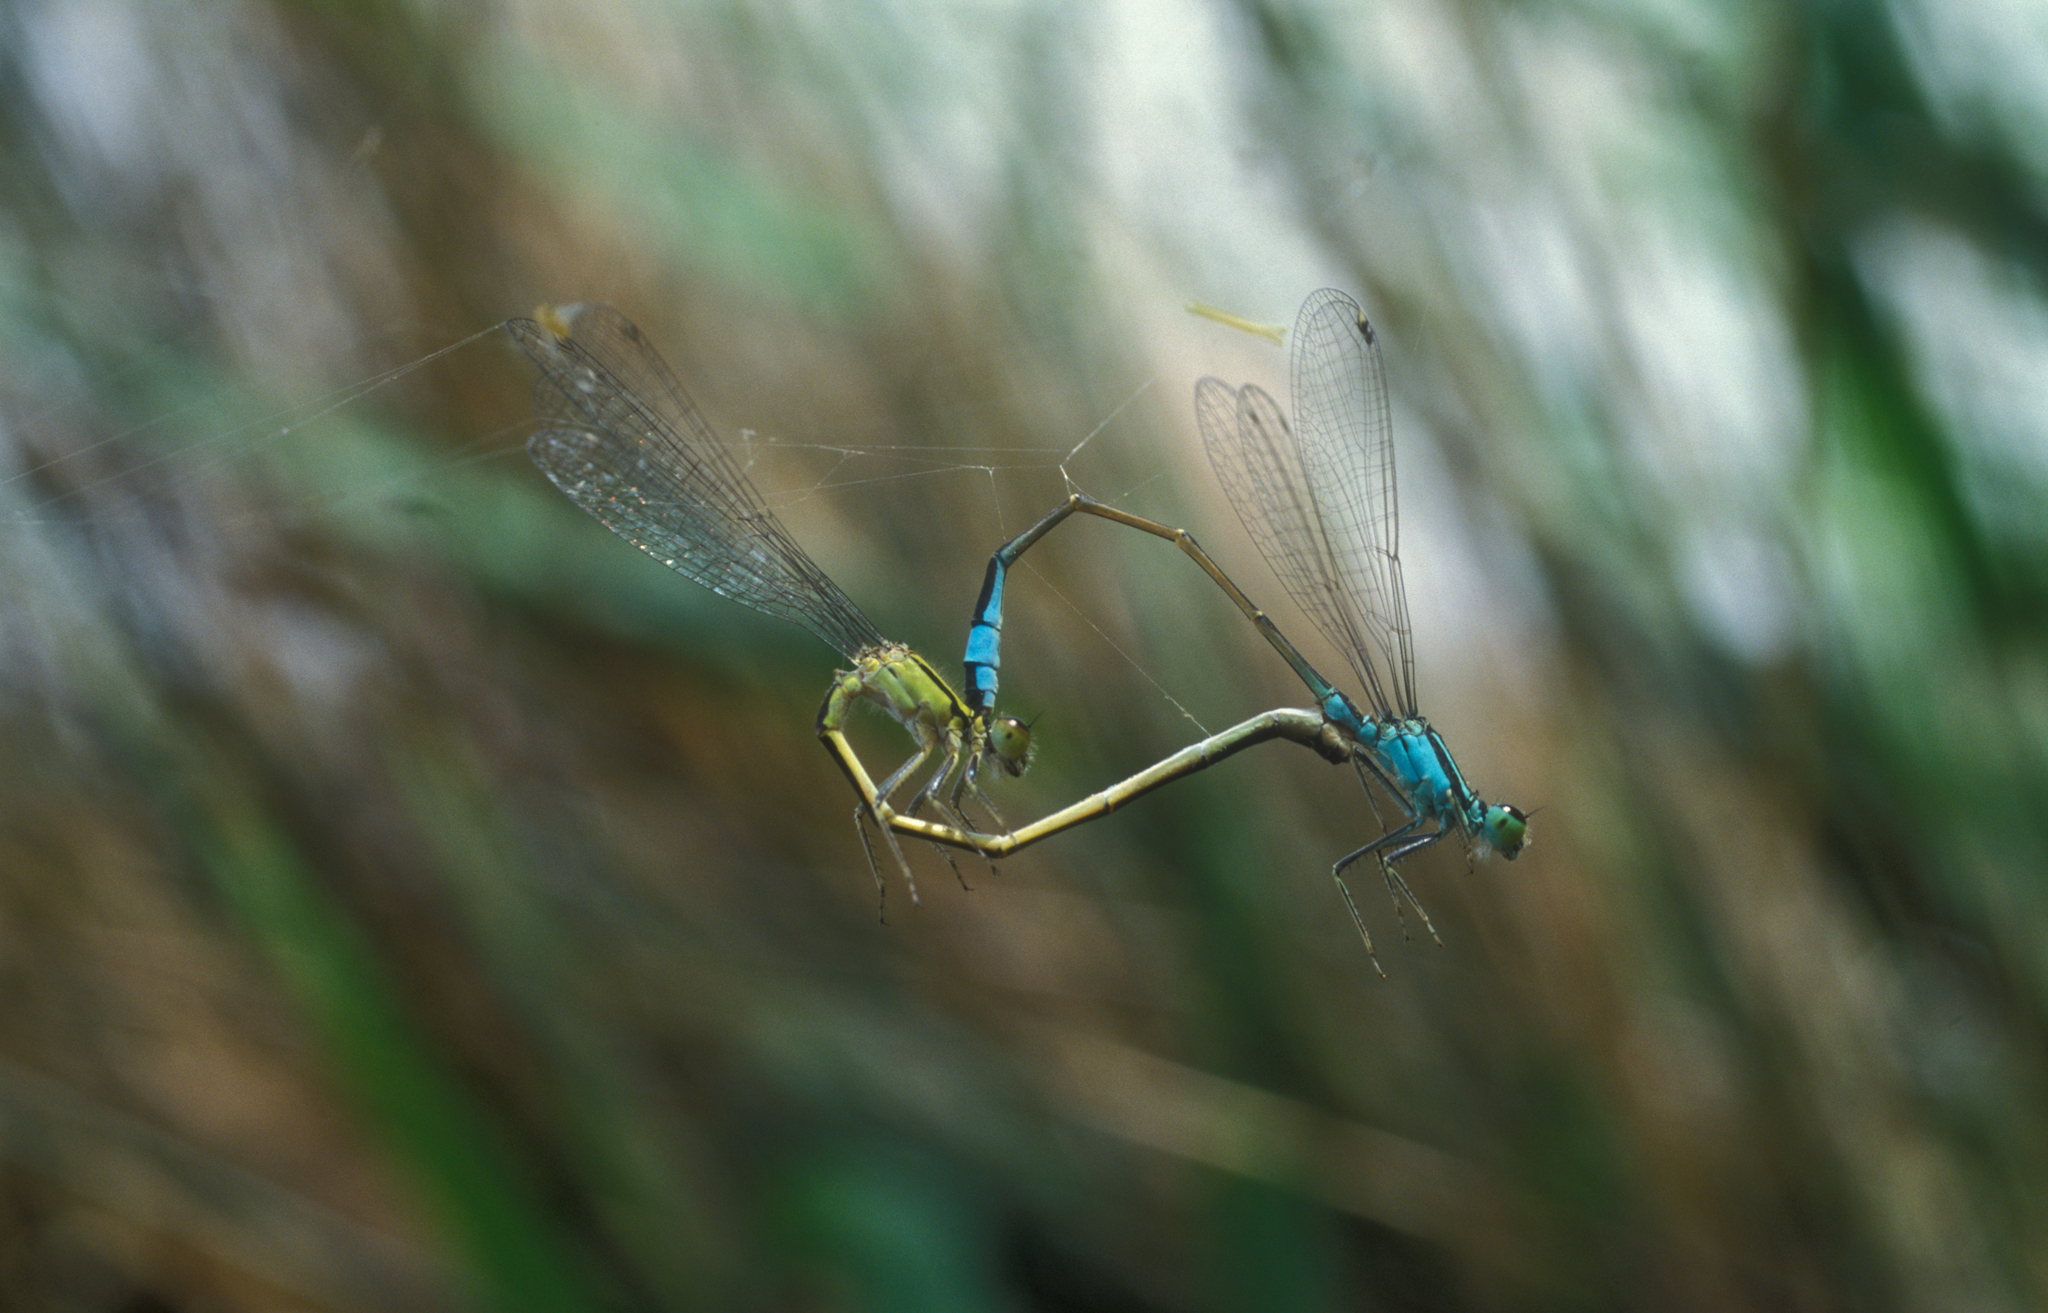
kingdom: Animalia
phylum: Arthropoda
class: Insecta
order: Odonata
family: Coenagrionidae
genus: Ischnura
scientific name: Ischnura elegans
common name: Blue-tailed damselfly
